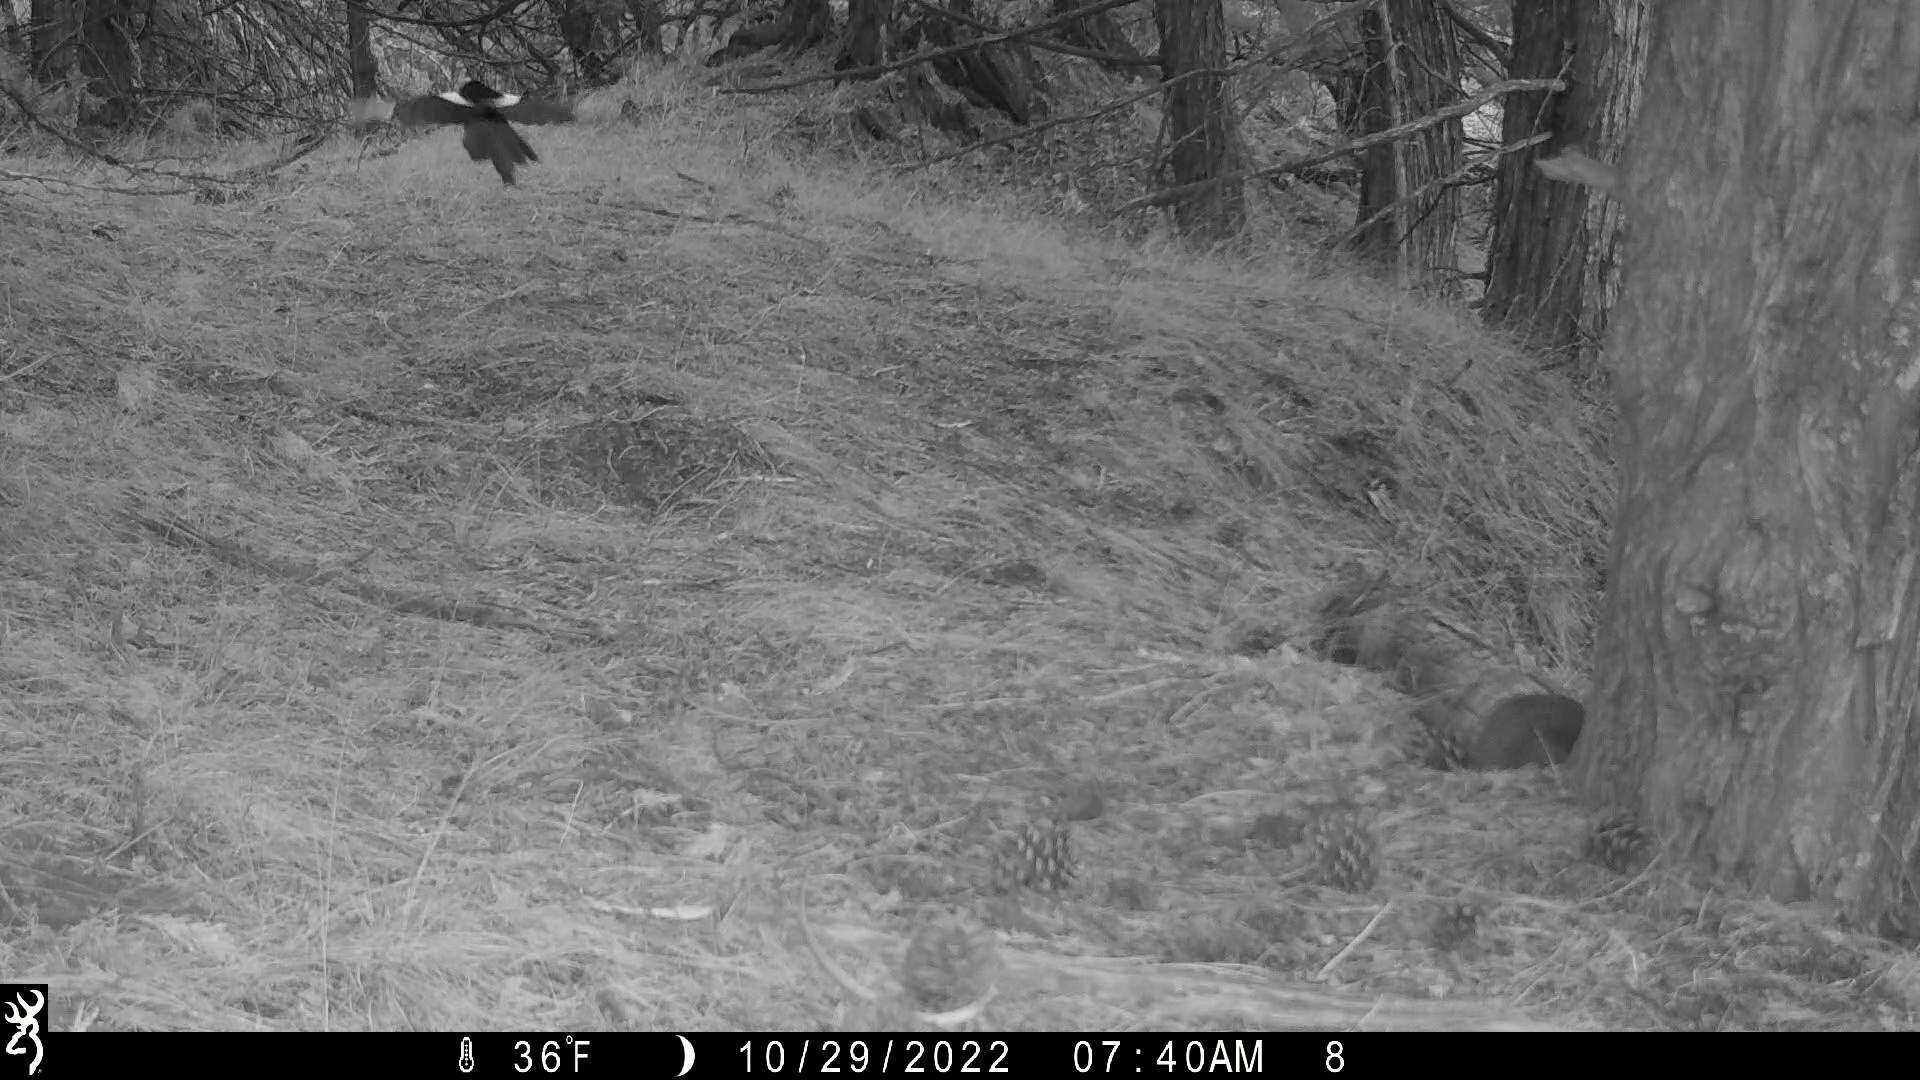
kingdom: Animalia
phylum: Chordata
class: Aves
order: Passeriformes
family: Corvidae
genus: Pica
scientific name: Pica hudsonia
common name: Black-billed magpie
